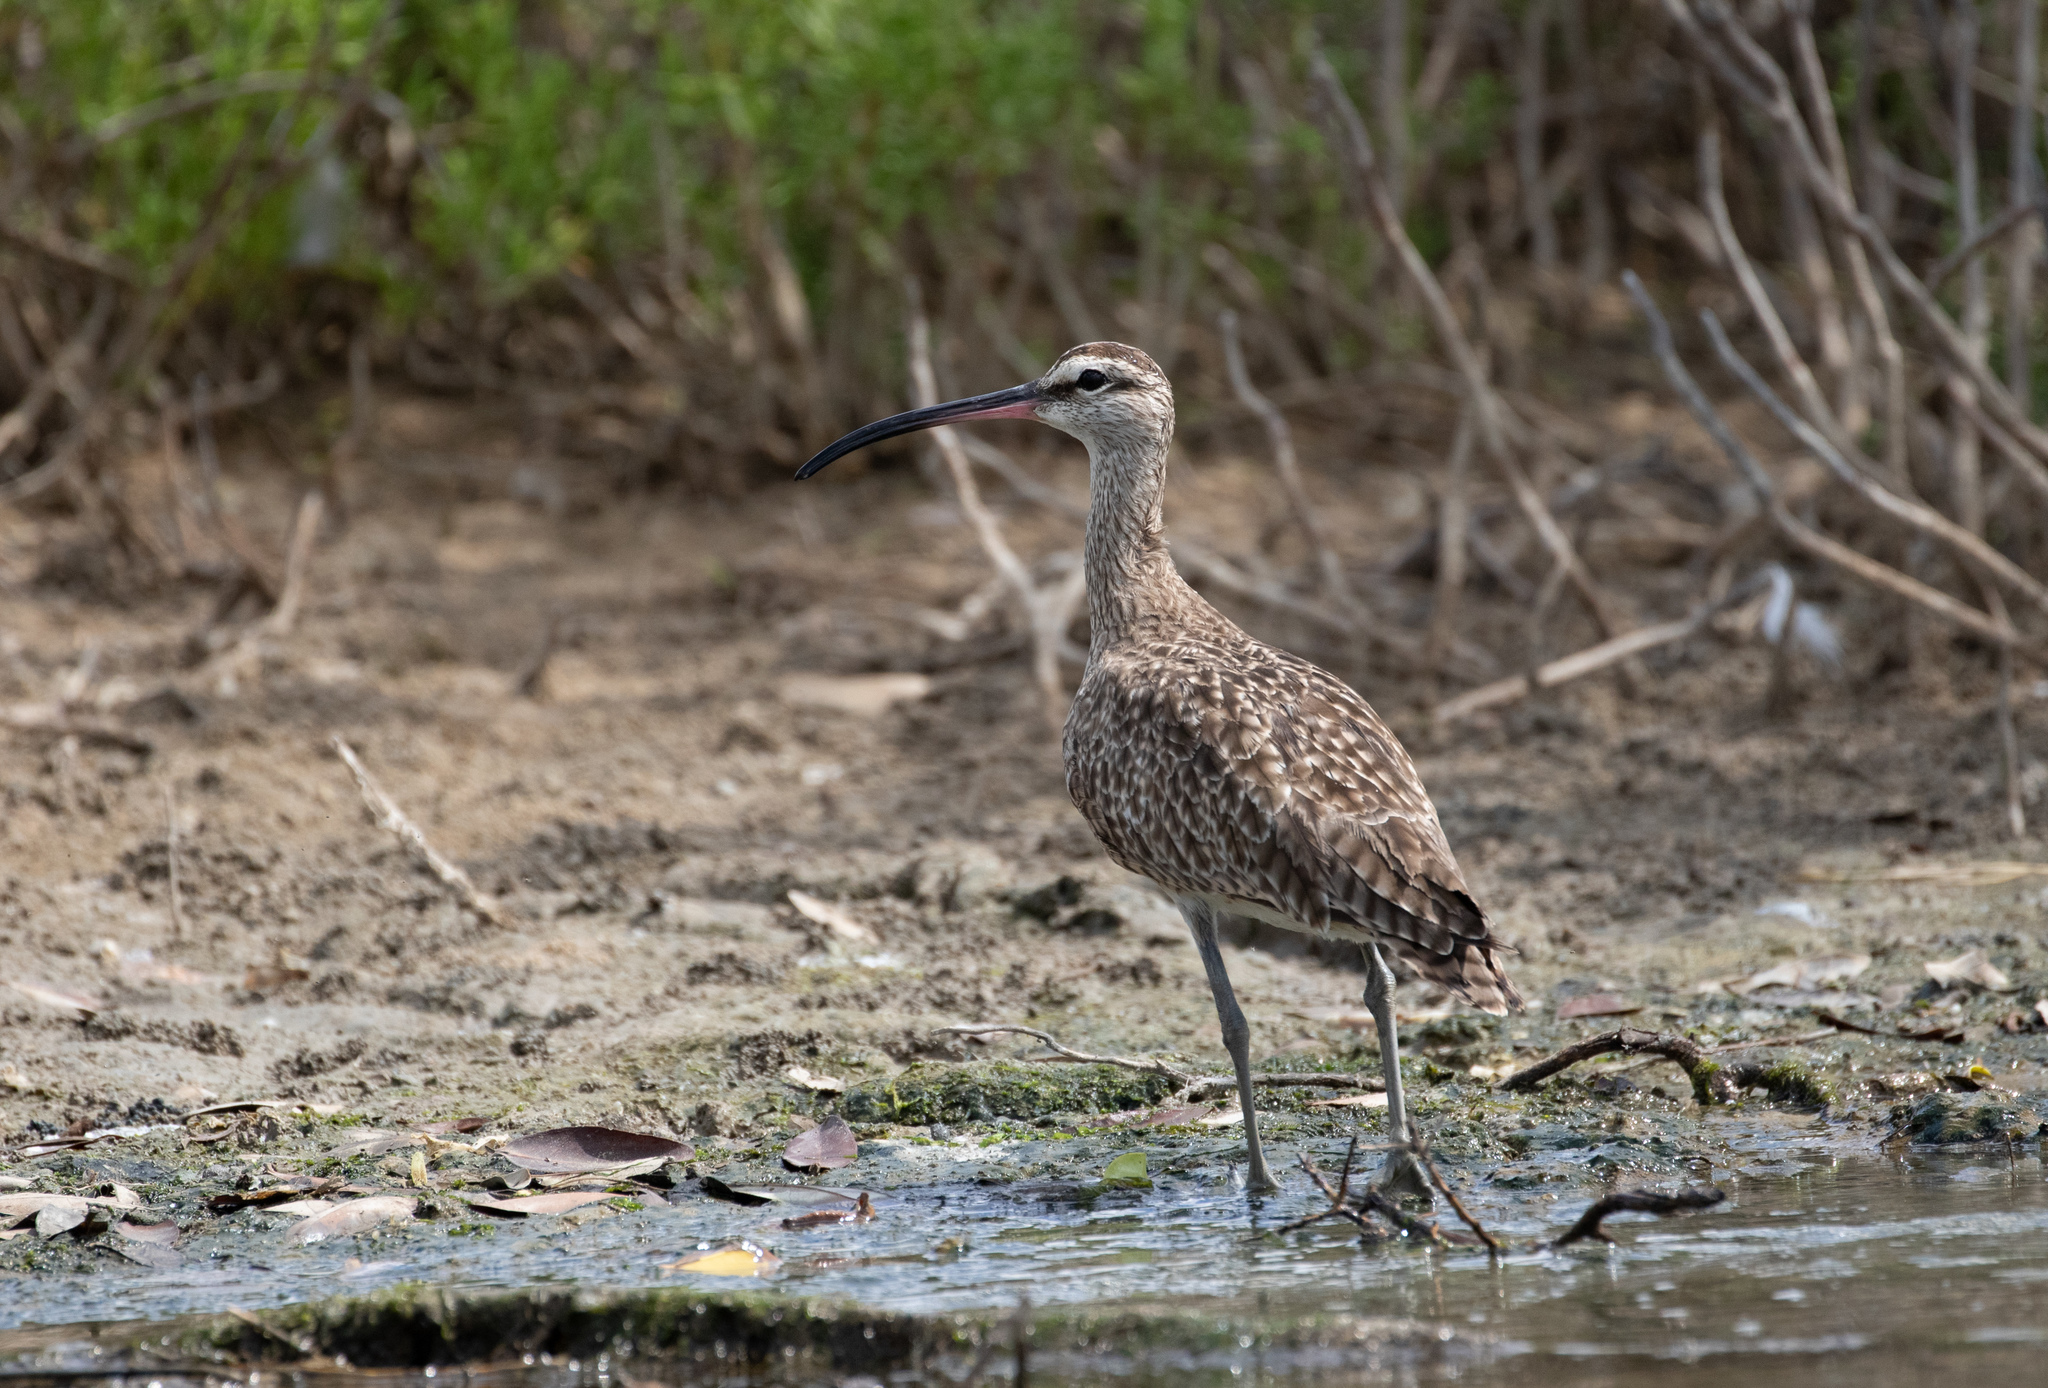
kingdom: Animalia
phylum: Chordata
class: Aves
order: Charadriiformes
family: Scolopacidae
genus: Numenius
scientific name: Numenius phaeopus
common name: Whimbrel
